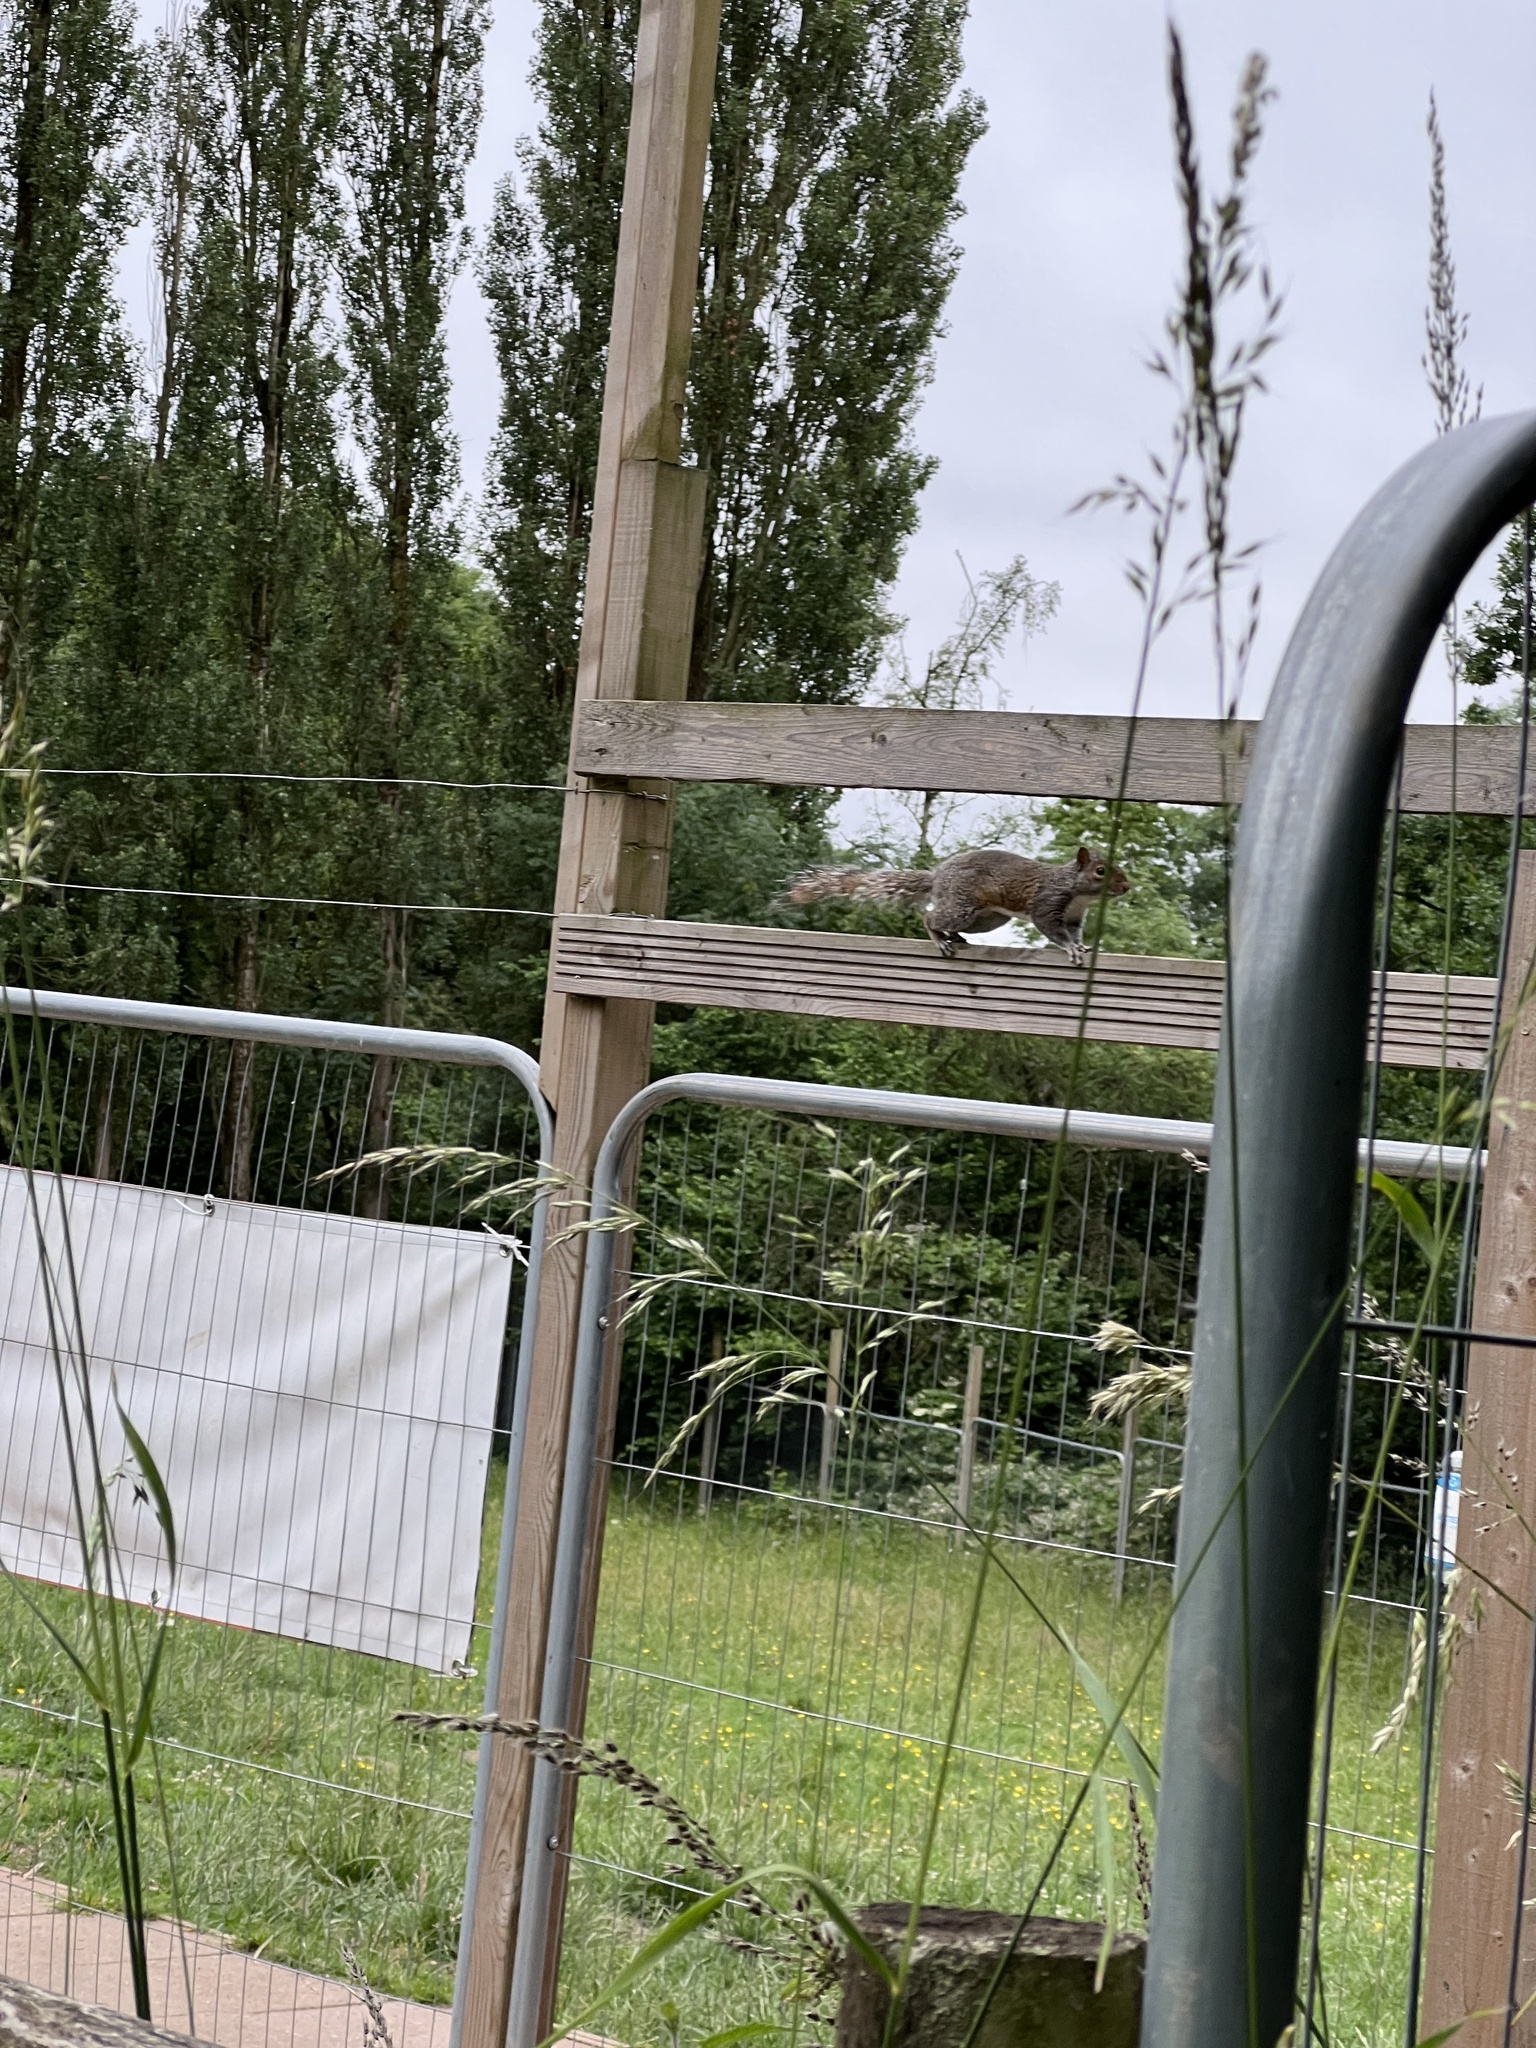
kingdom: Animalia
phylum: Chordata
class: Mammalia
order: Rodentia
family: Sciuridae
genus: Sciurus
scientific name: Sciurus carolinensis
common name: Eastern gray squirrel
